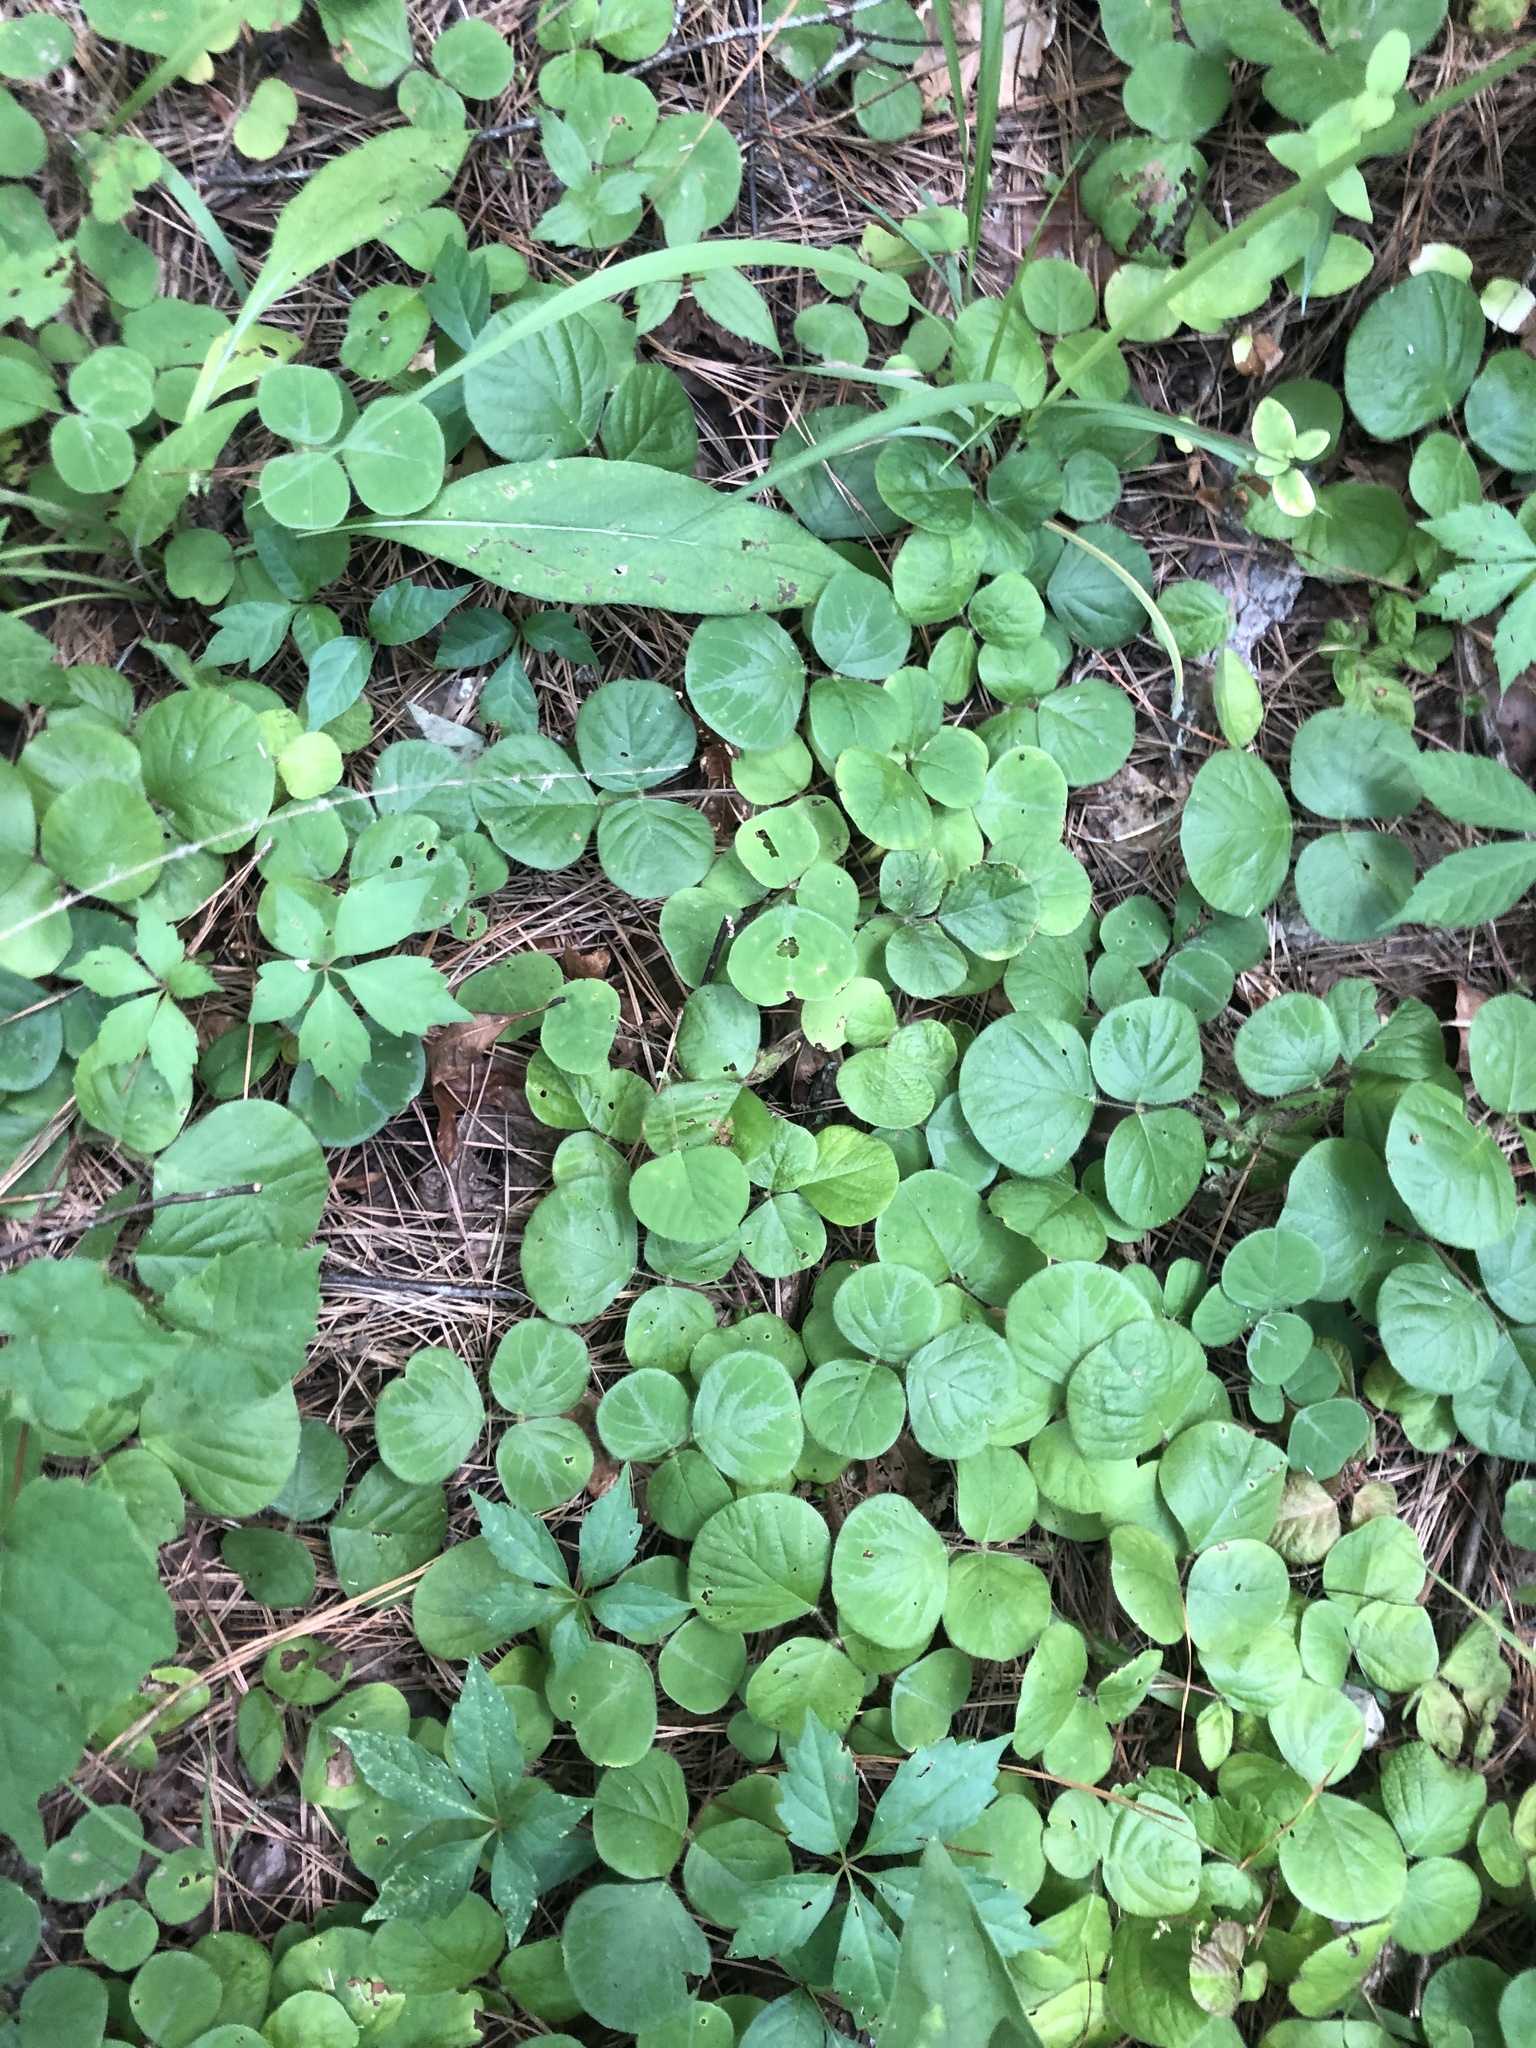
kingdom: Plantae
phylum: Tracheophyta
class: Magnoliopsida
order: Fabales
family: Fabaceae
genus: Desmodium
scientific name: Desmodium rotundifolium
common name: Dollarleaf
